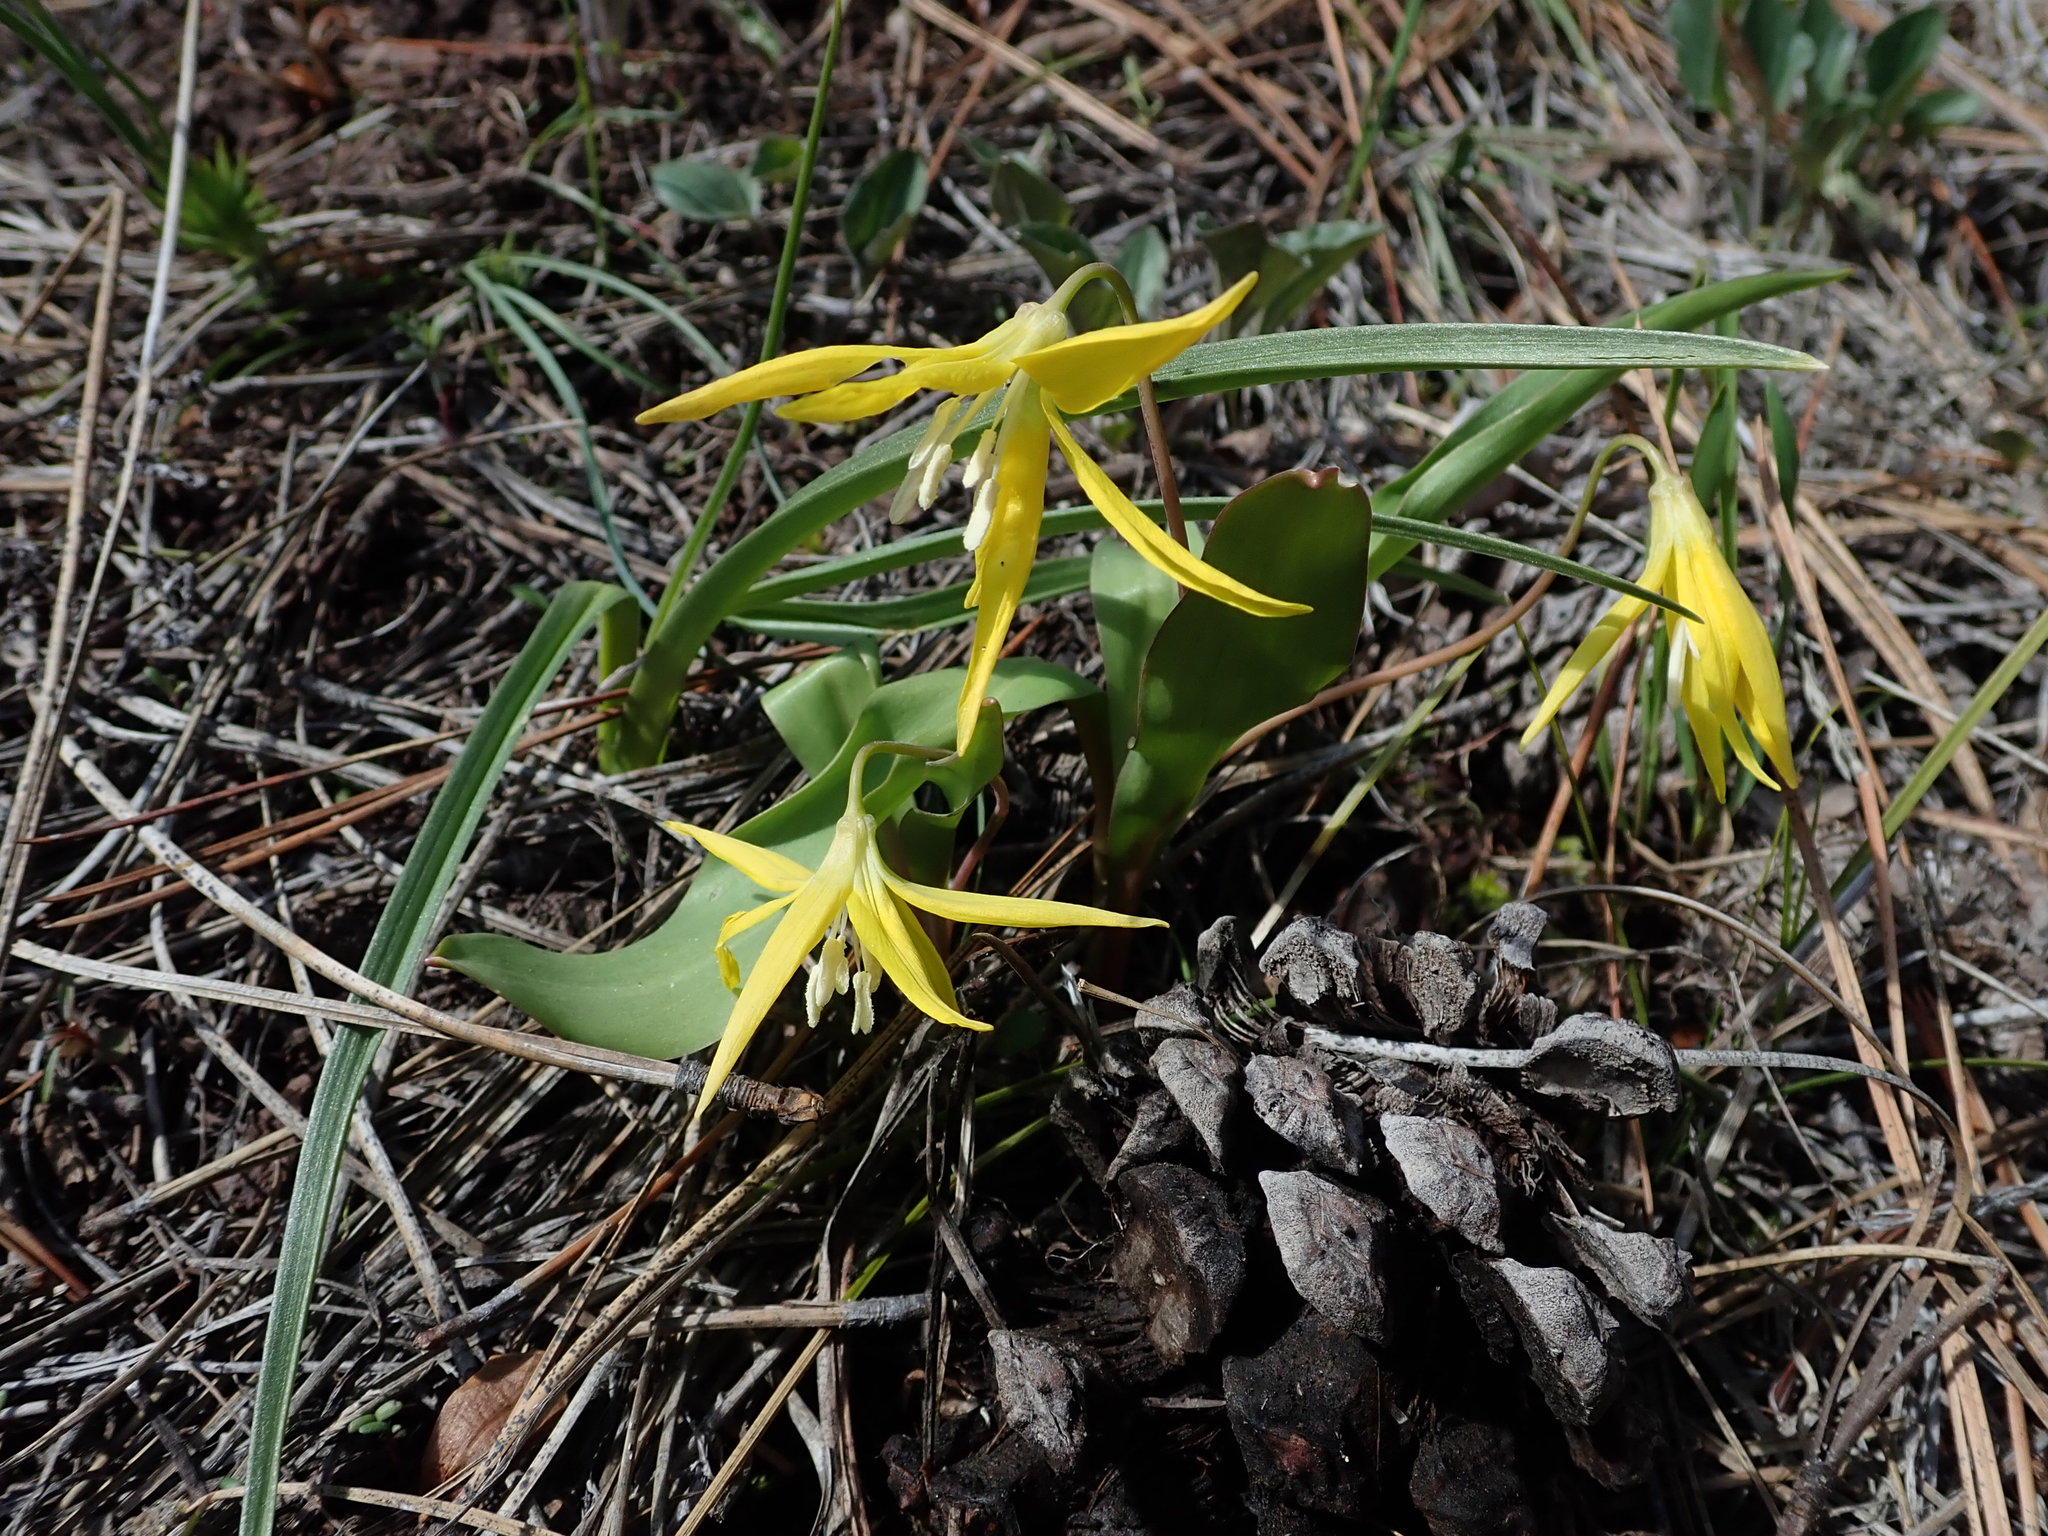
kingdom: Plantae
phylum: Tracheophyta
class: Liliopsida
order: Liliales
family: Liliaceae
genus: Erythronium
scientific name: Erythronium grandiflorum
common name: Avalanche-lily
